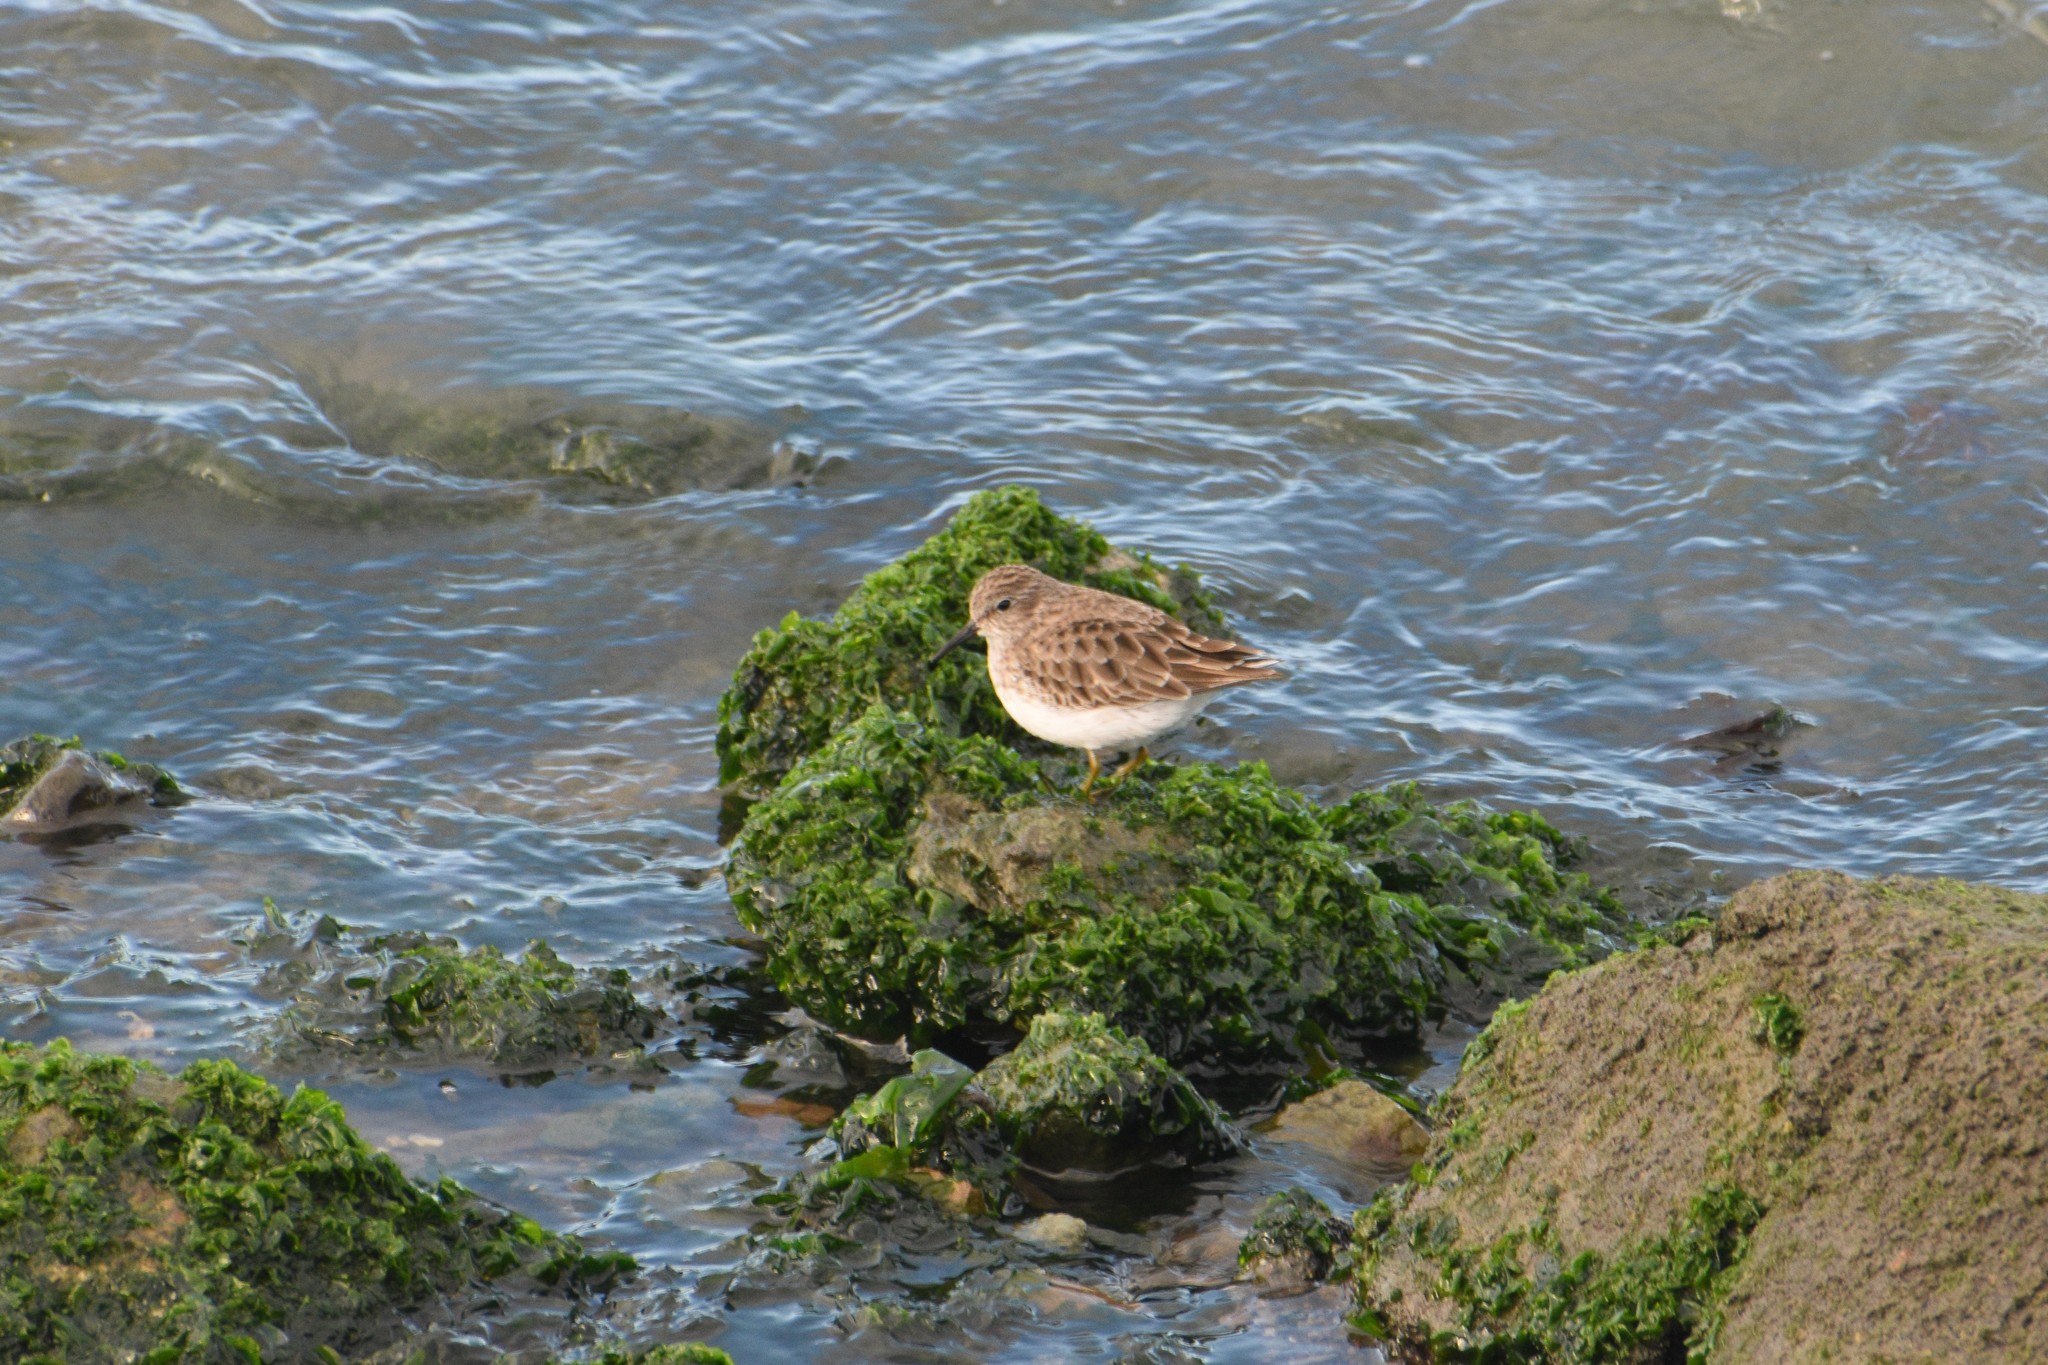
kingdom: Animalia
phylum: Chordata
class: Aves
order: Charadriiformes
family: Scolopacidae
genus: Calidris
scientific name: Calidris minutilla
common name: Least sandpiper
